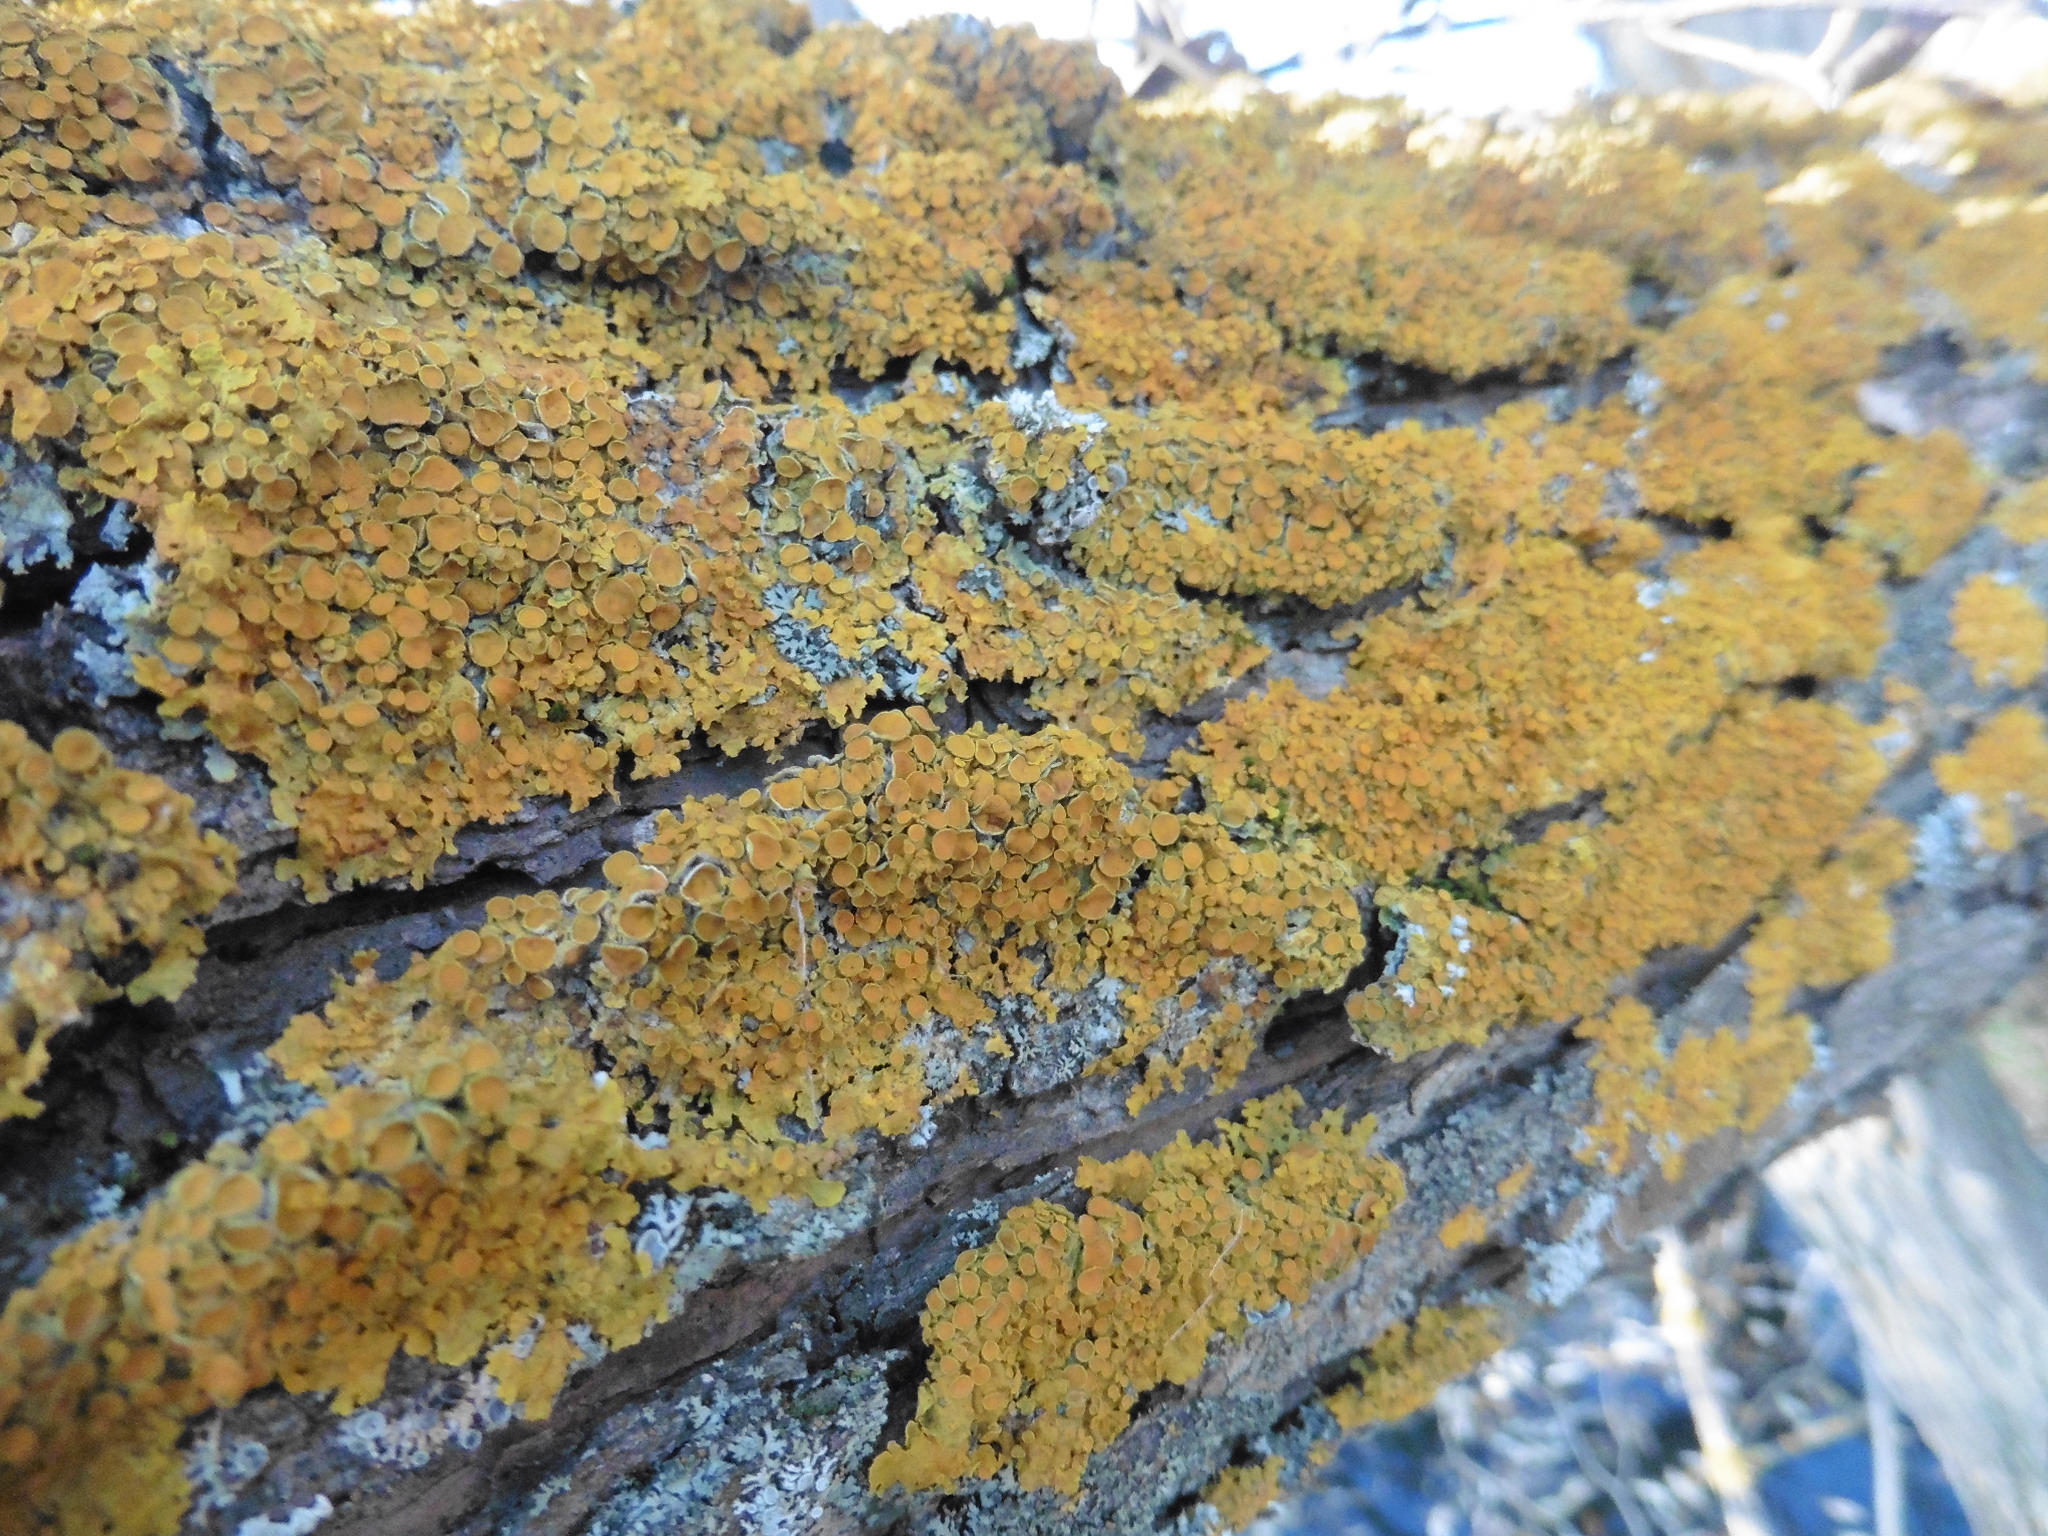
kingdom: Fungi
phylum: Ascomycota
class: Lecanoromycetes
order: Teloschistales
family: Teloschistaceae
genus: Xanthoria
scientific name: Xanthoria parietina
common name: Common orange lichen
